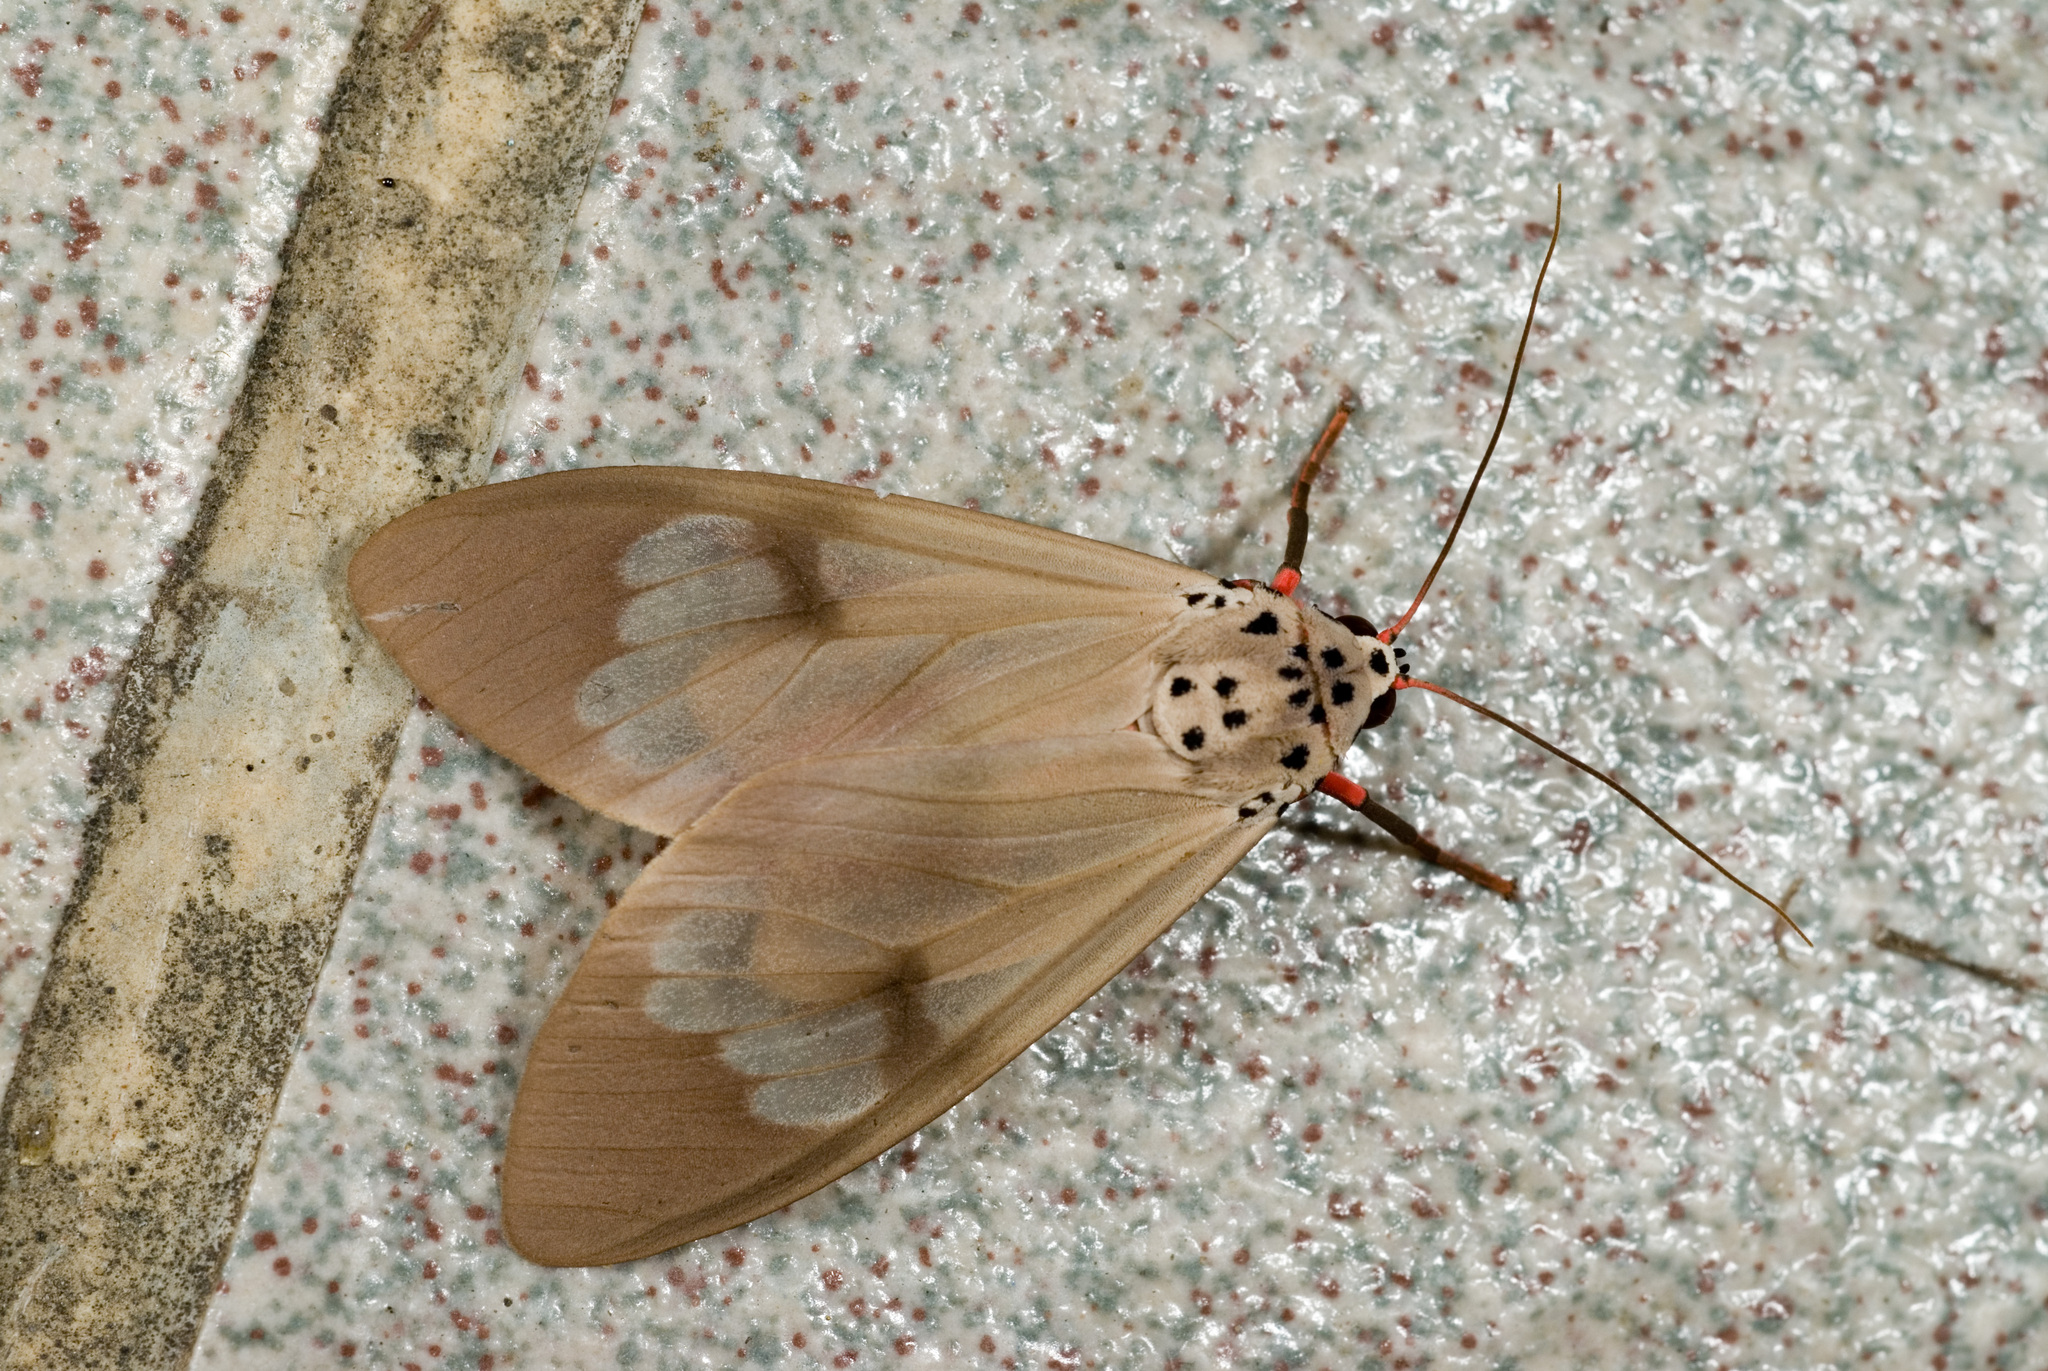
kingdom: Animalia
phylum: Arthropoda
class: Insecta
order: Lepidoptera
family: Erebidae
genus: Amerila
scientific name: Amerila astreus
